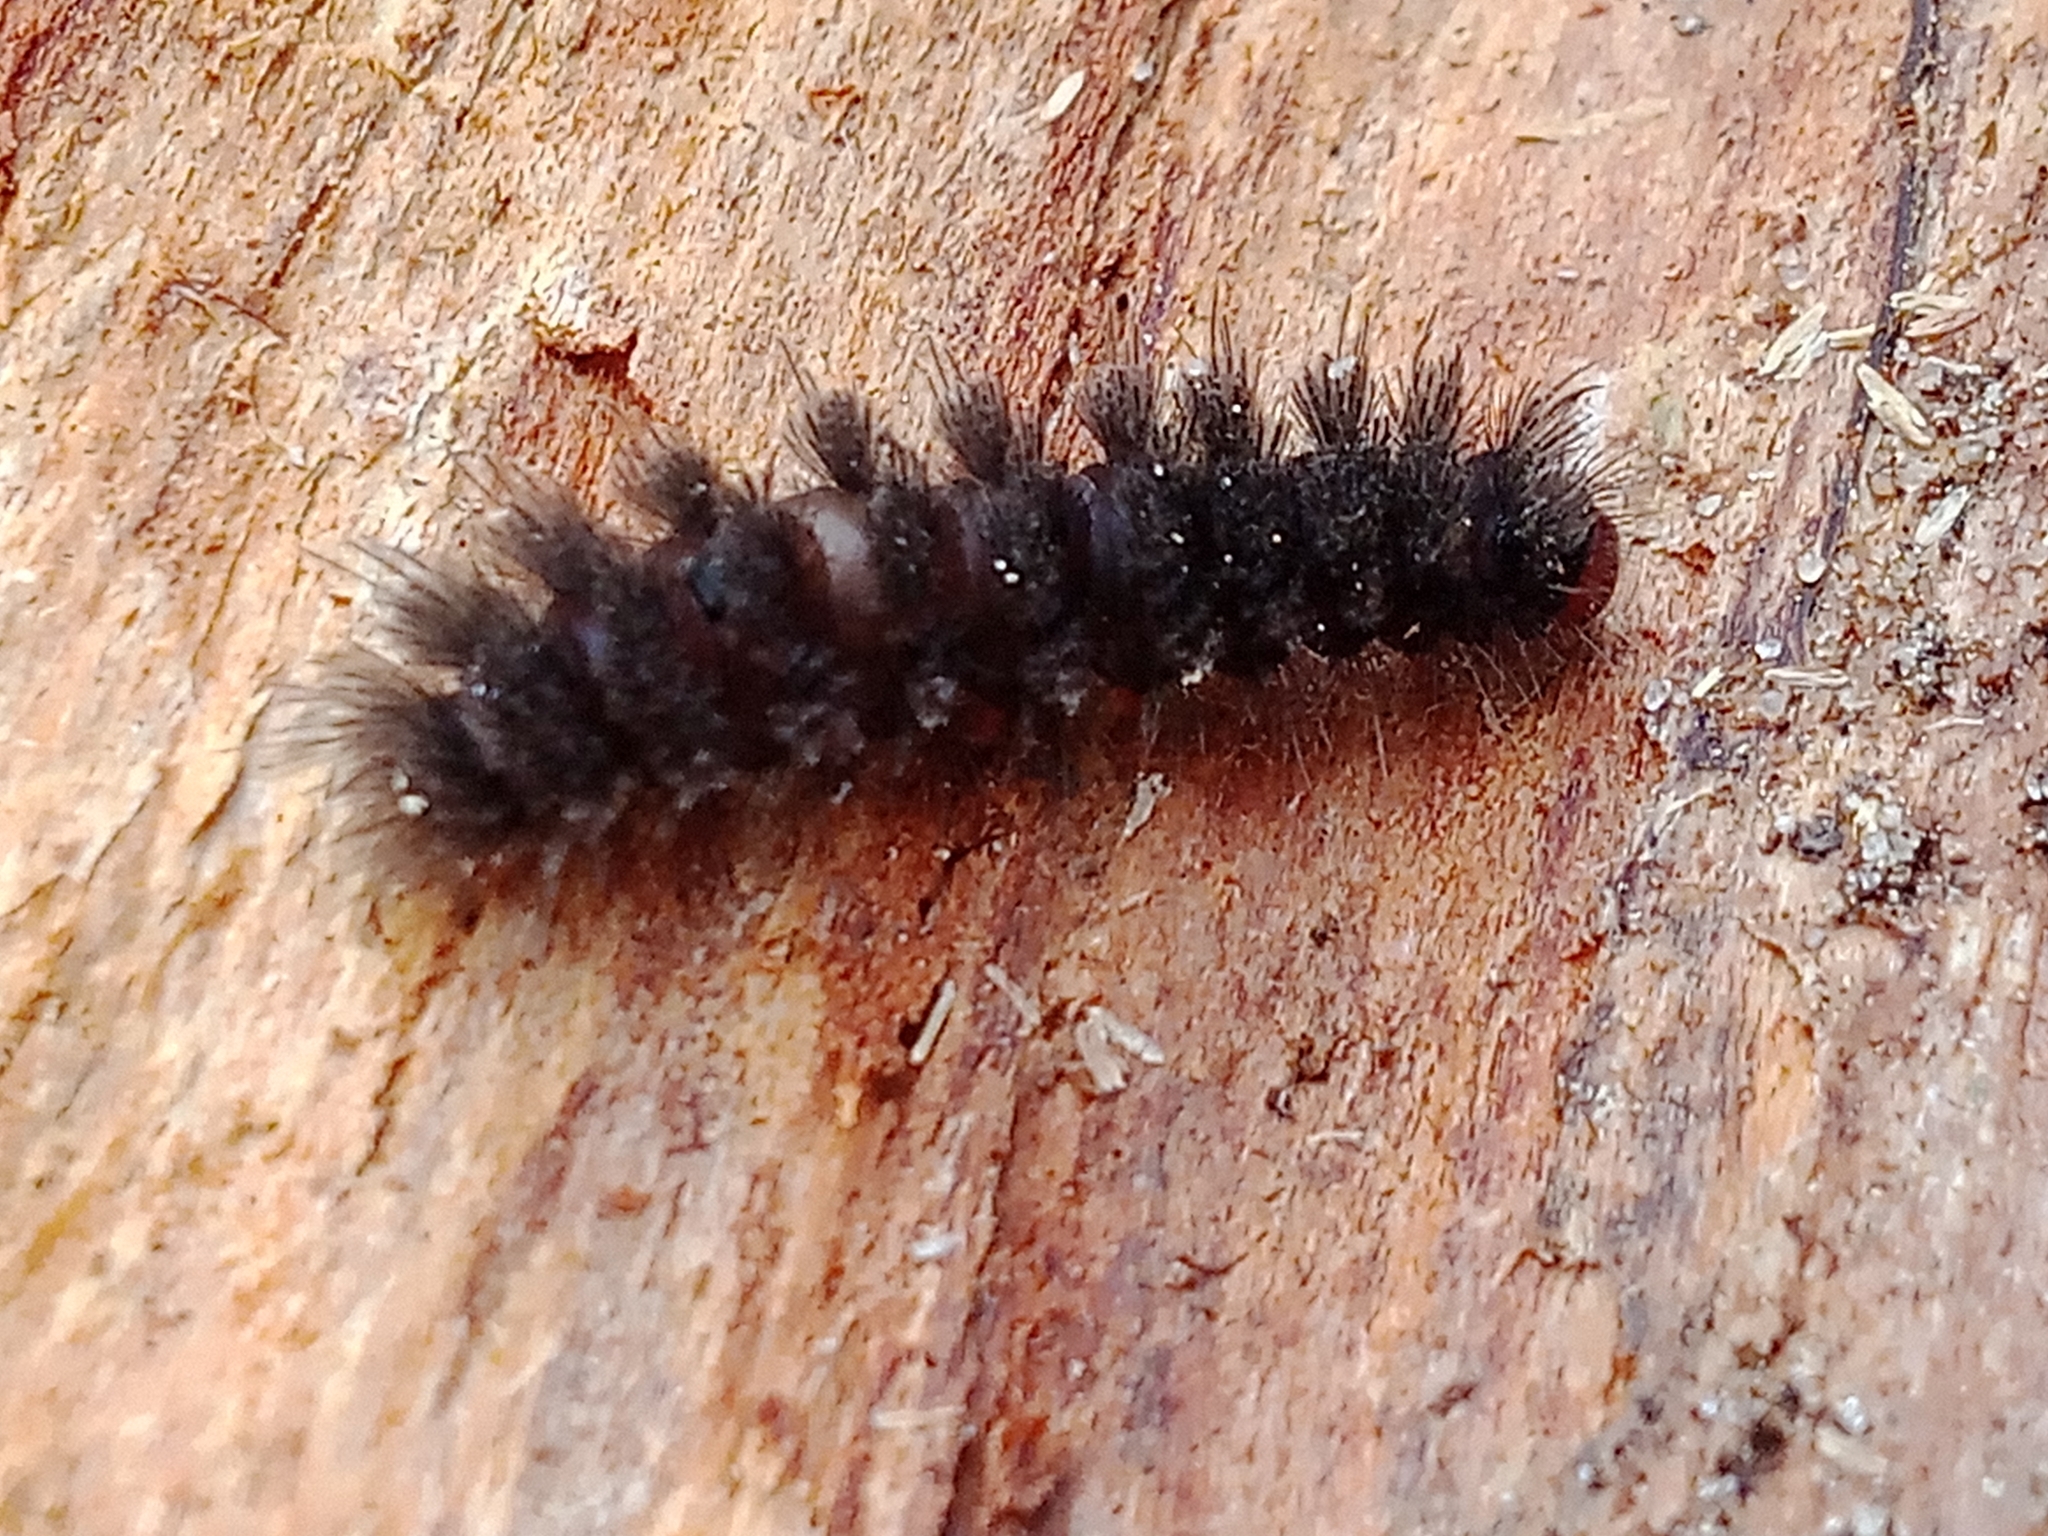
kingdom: Animalia
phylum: Arthropoda
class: Insecta
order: Lepidoptera
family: Erebidae
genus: Amata
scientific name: Amata nigricornis
